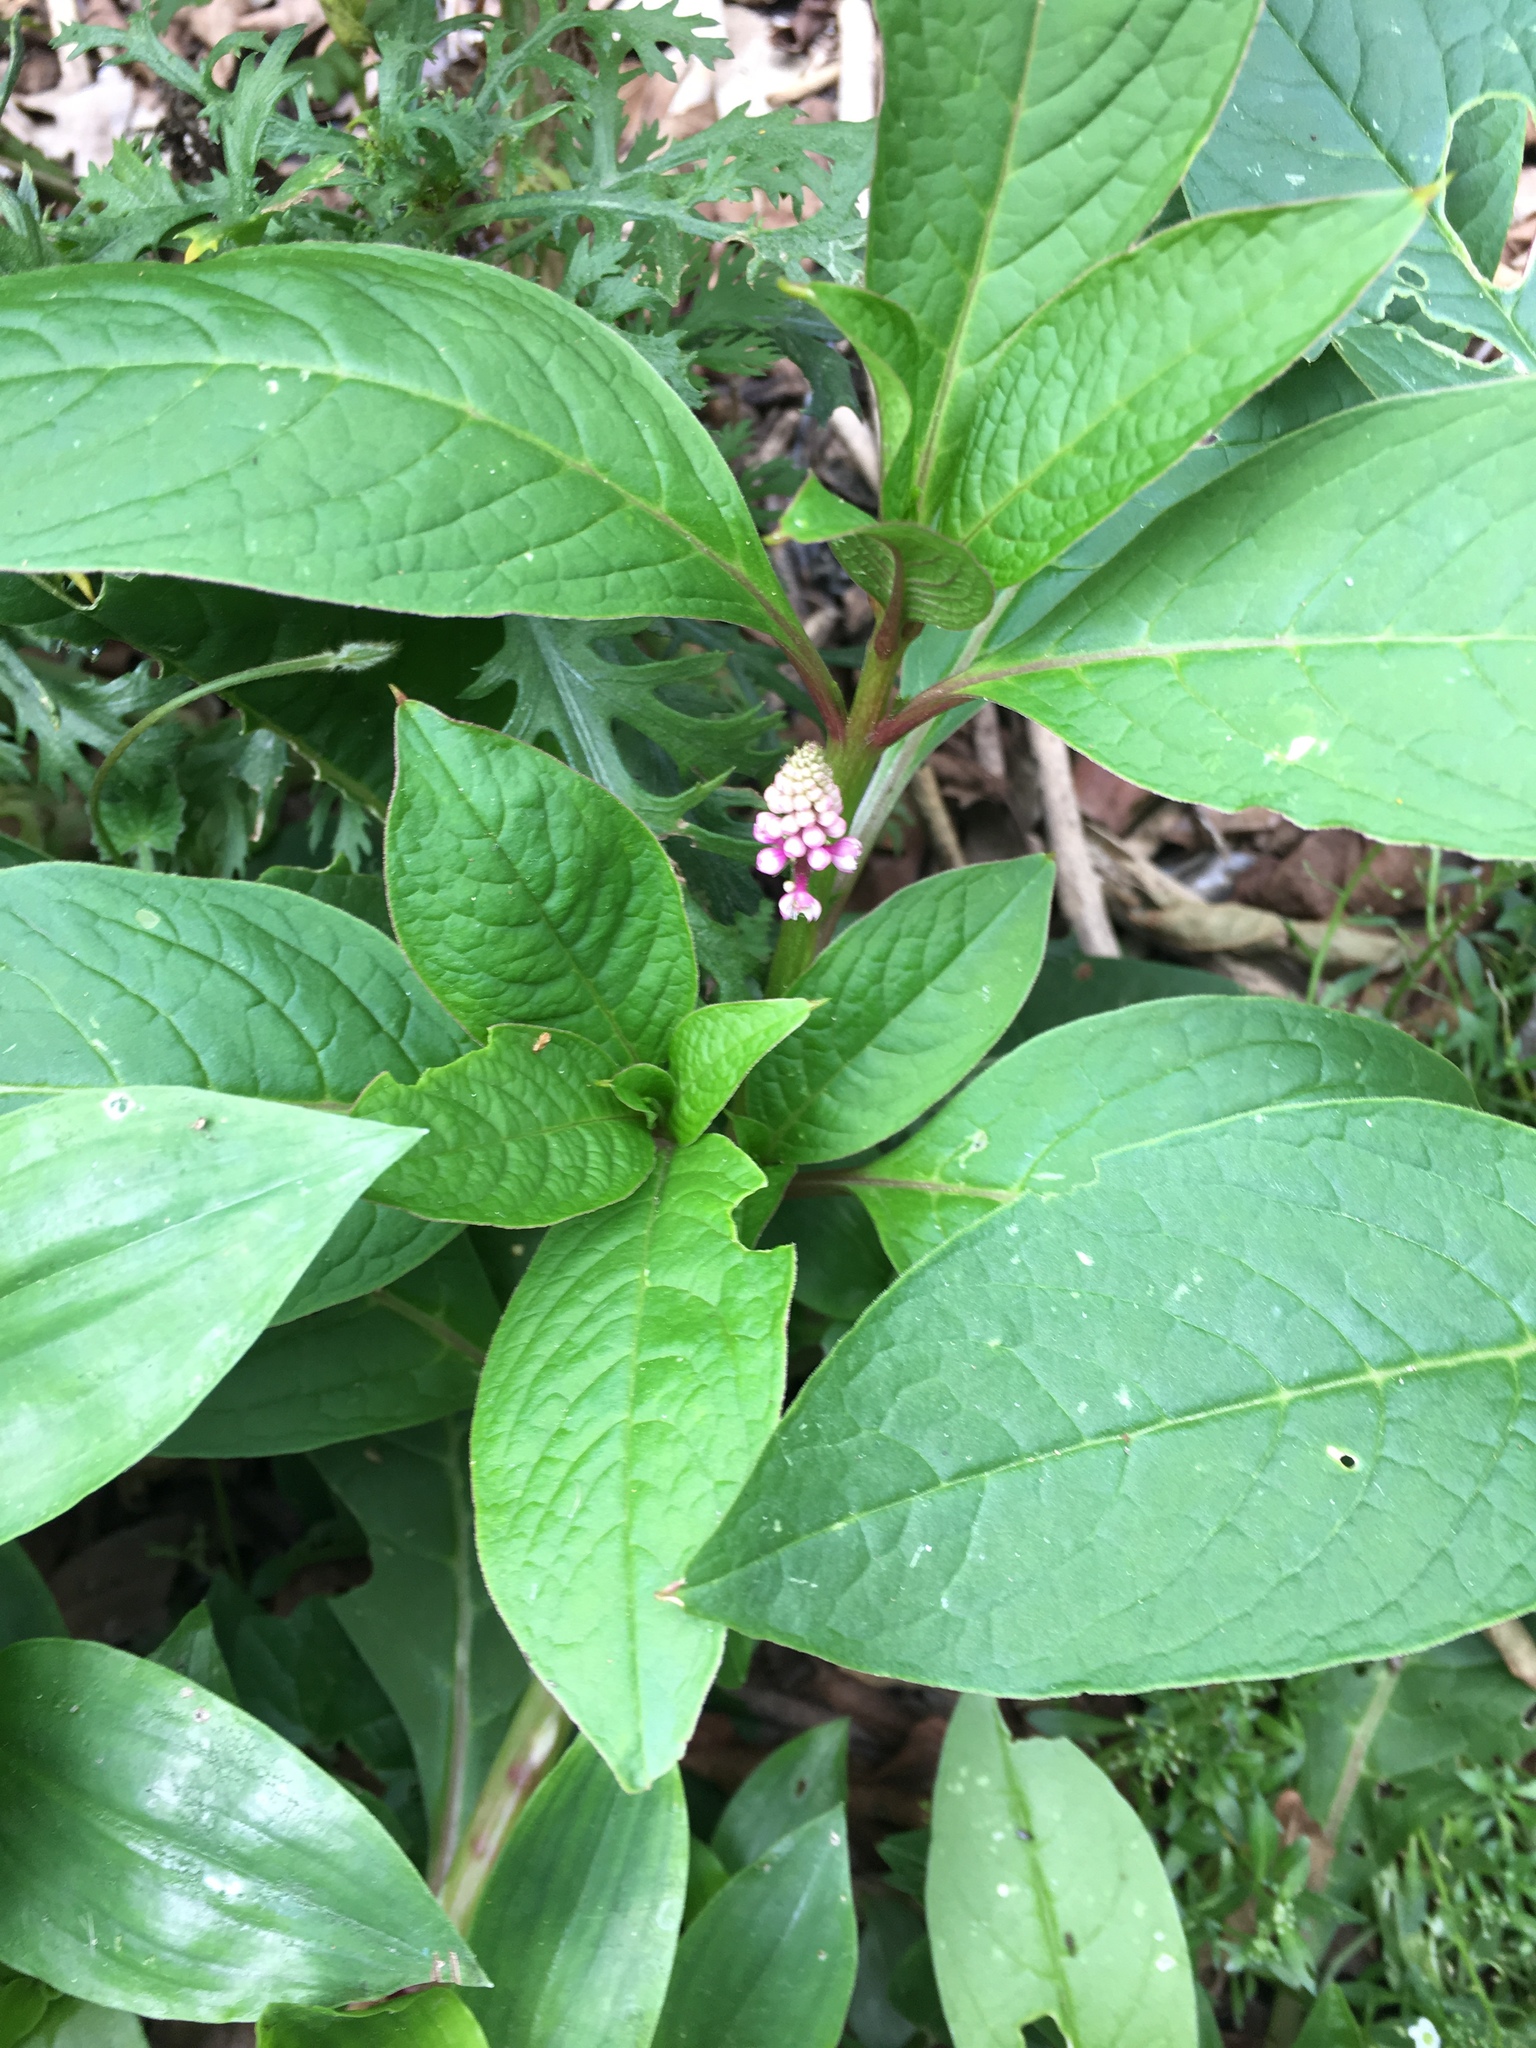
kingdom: Plantae
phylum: Tracheophyta
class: Magnoliopsida
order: Caryophyllales
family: Phytolaccaceae
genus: Phytolacca
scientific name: Phytolacca bogotensis
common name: Southern pokeweed
